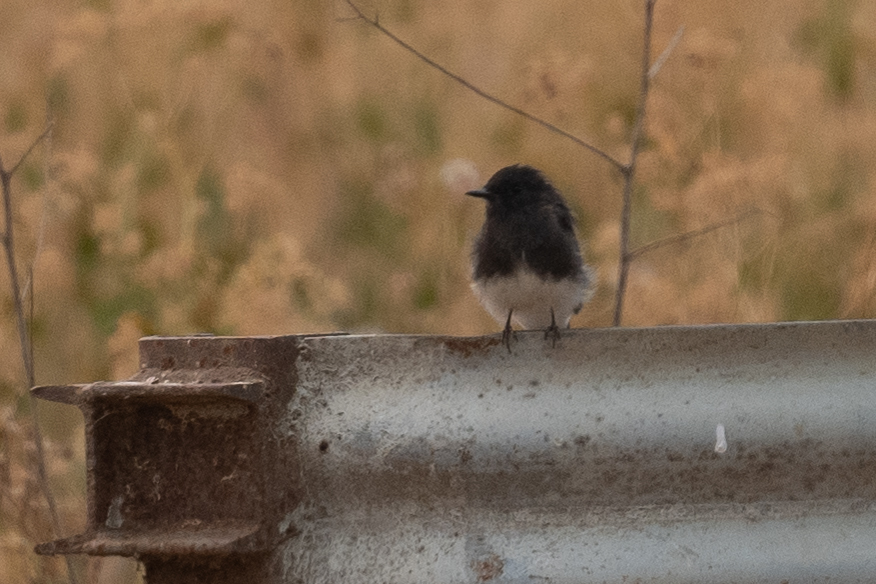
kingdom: Animalia
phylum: Chordata
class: Aves
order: Passeriformes
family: Tyrannidae
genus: Sayornis
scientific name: Sayornis nigricans
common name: Black phoebe
